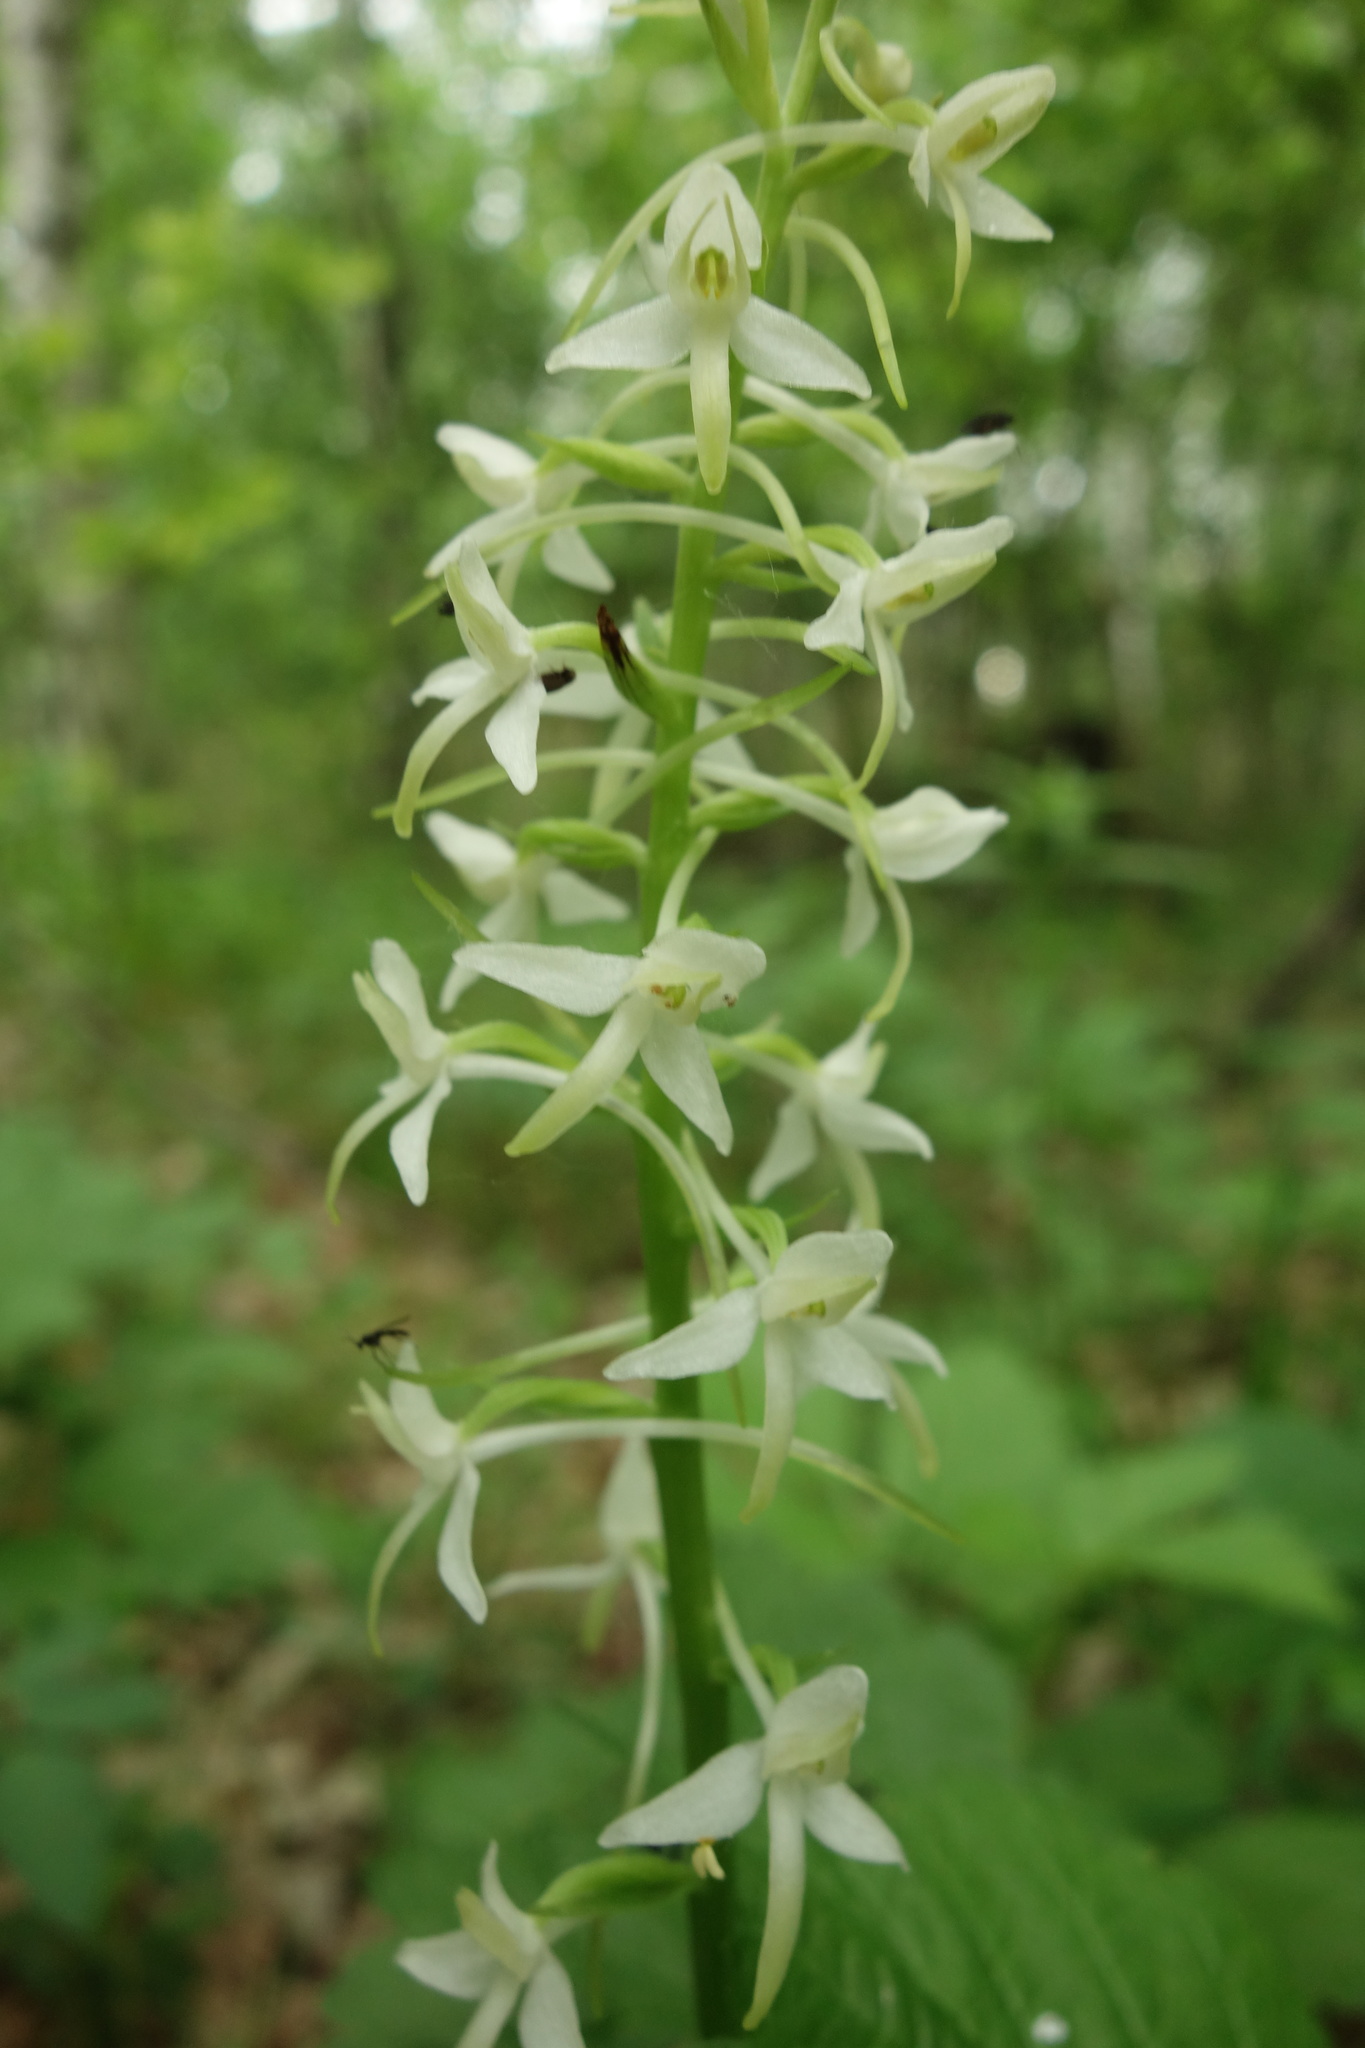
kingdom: Plantae
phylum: Tracheophyta
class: Liliopsida
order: Asparagales
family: Orchidaceae
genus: Platanthera
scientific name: Platanthera bifolia
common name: Lesser butterfly-orchid
